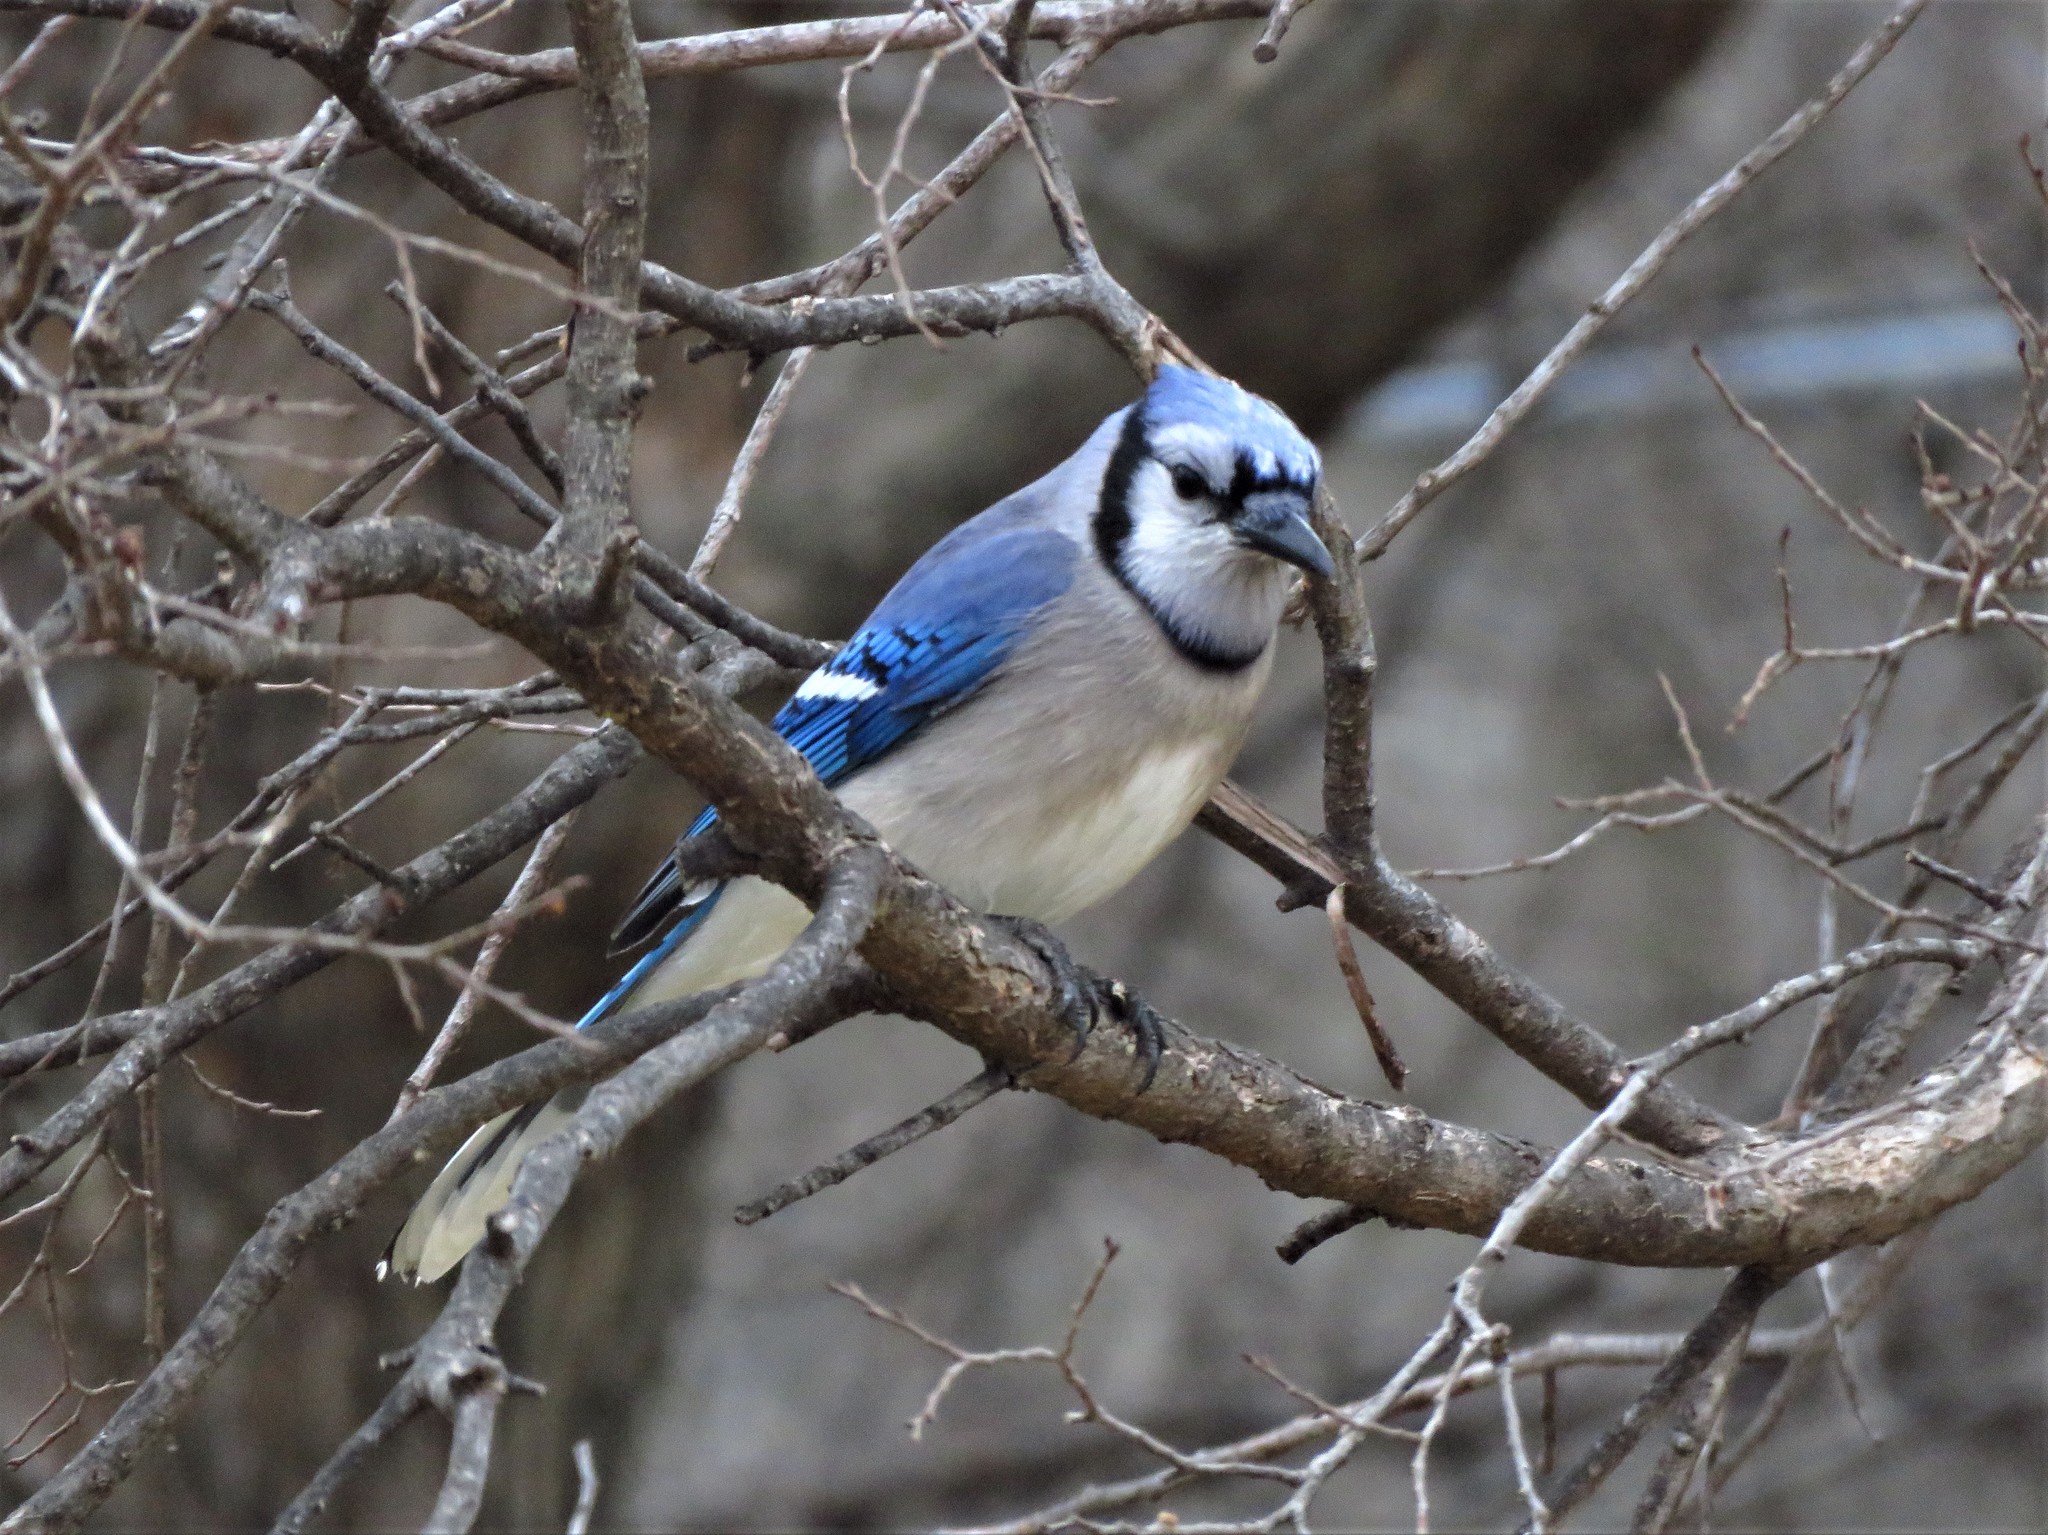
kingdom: Animalia
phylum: Chordata
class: Aves
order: Passeriformes
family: Corvidae
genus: Cyanocitta
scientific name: Cyanocitta cristata
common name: Blue jay
